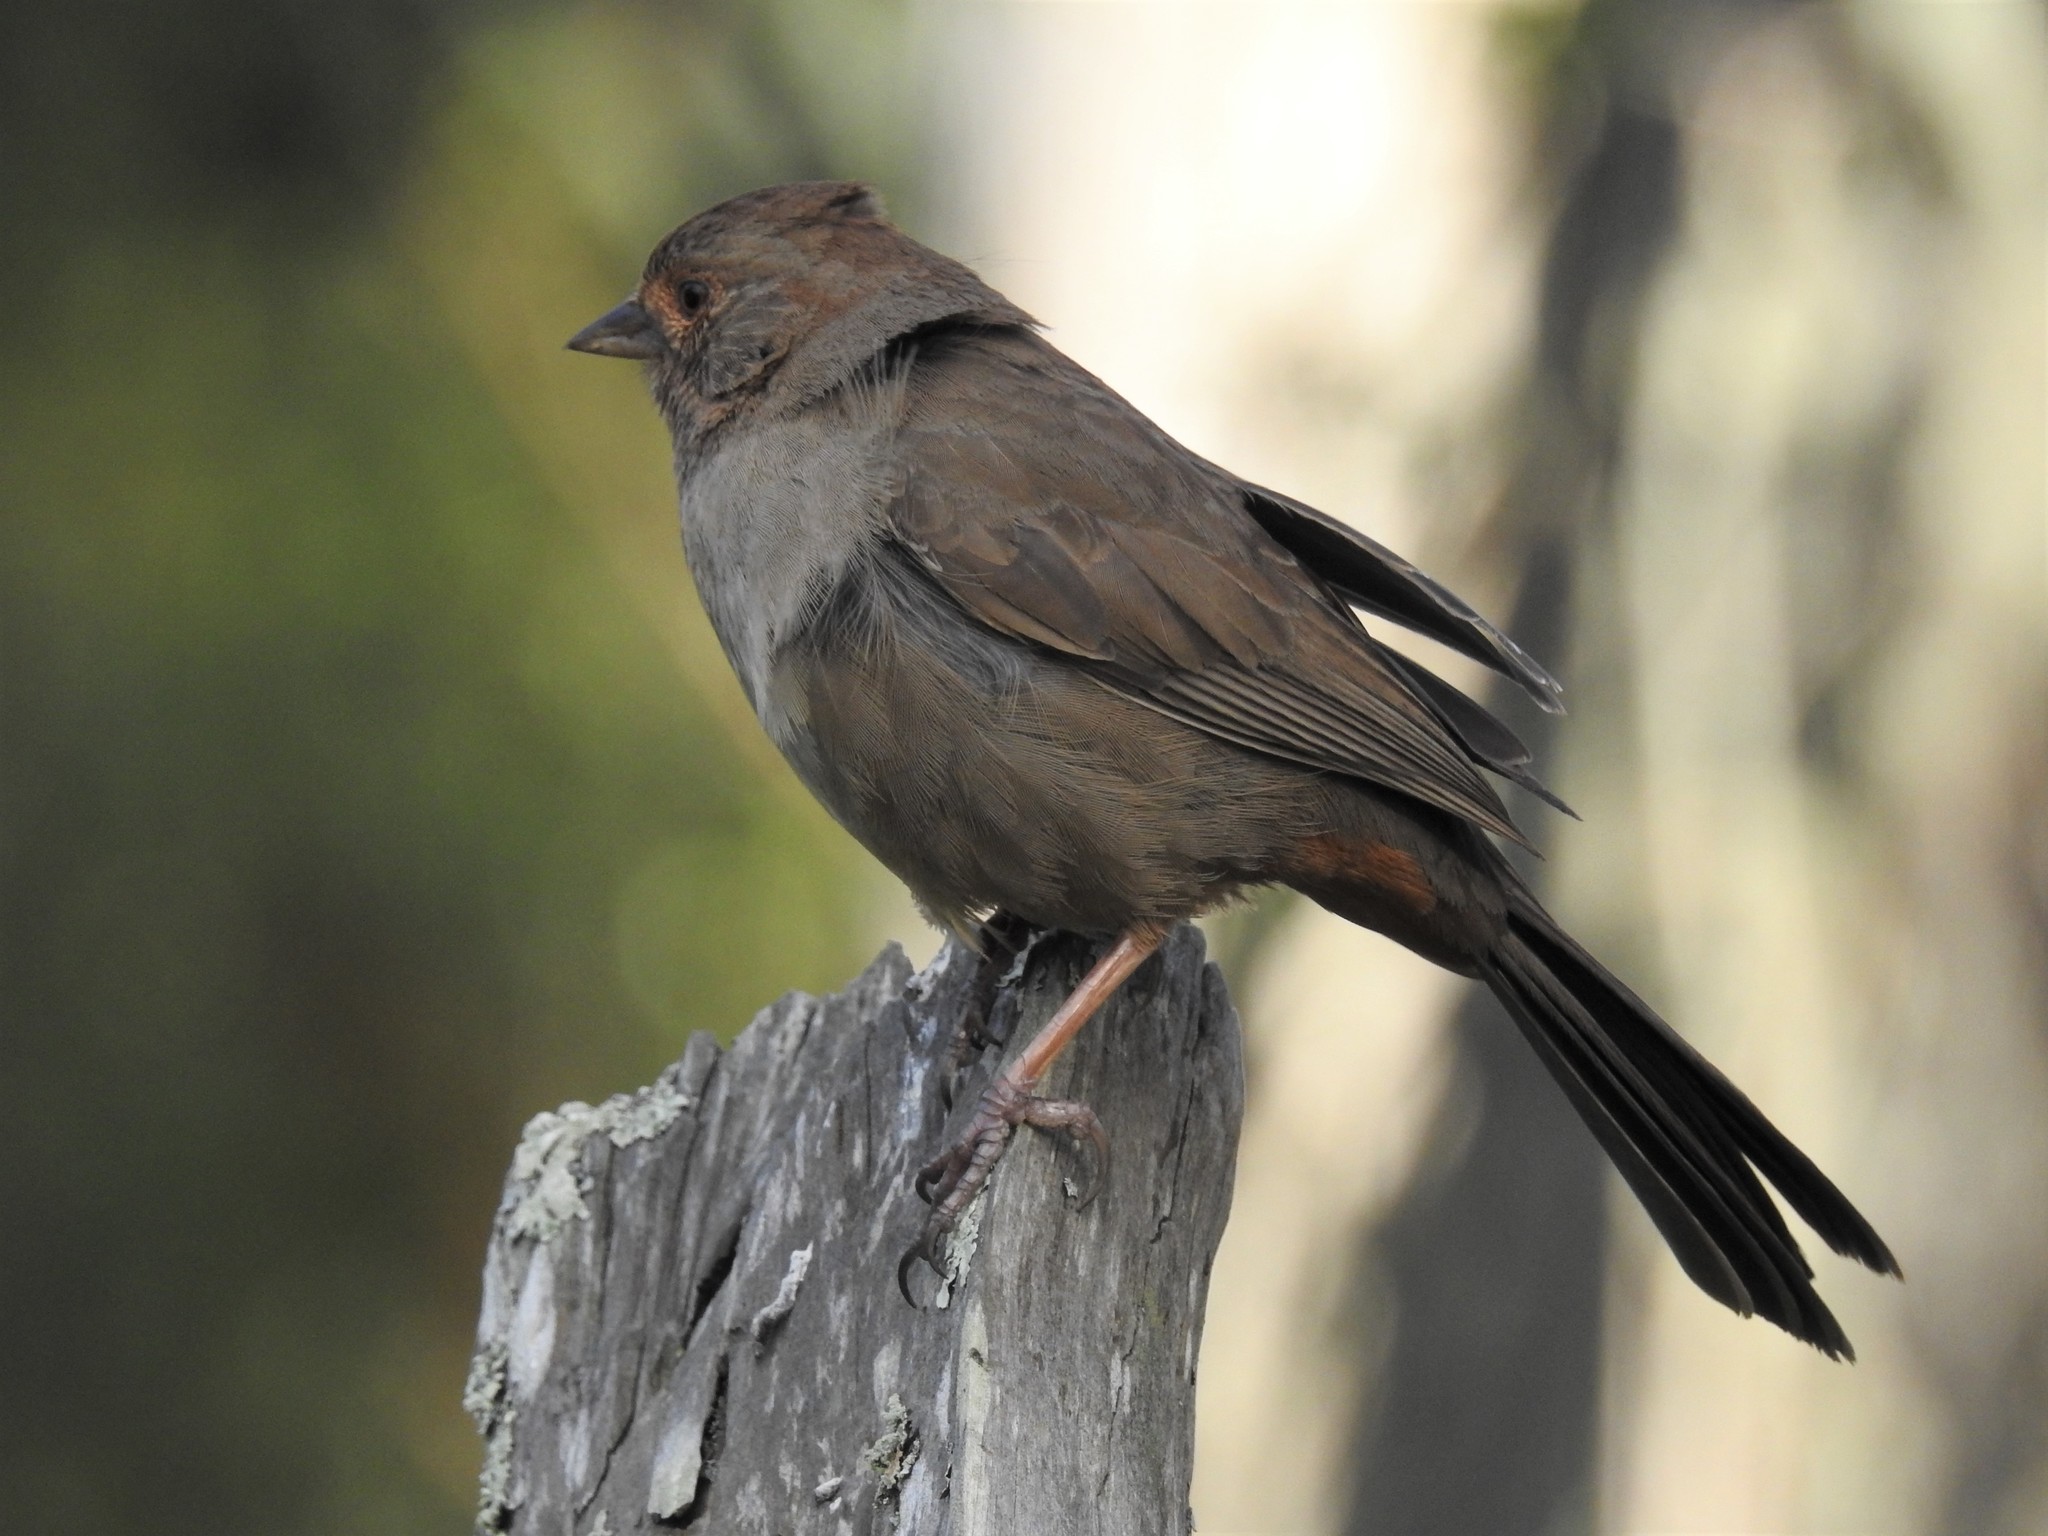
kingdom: Animalia
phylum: Chordata
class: Aves
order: Passeriformes
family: Passerellidae
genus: Melozone
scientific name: Melozone crissalis
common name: California towhee
